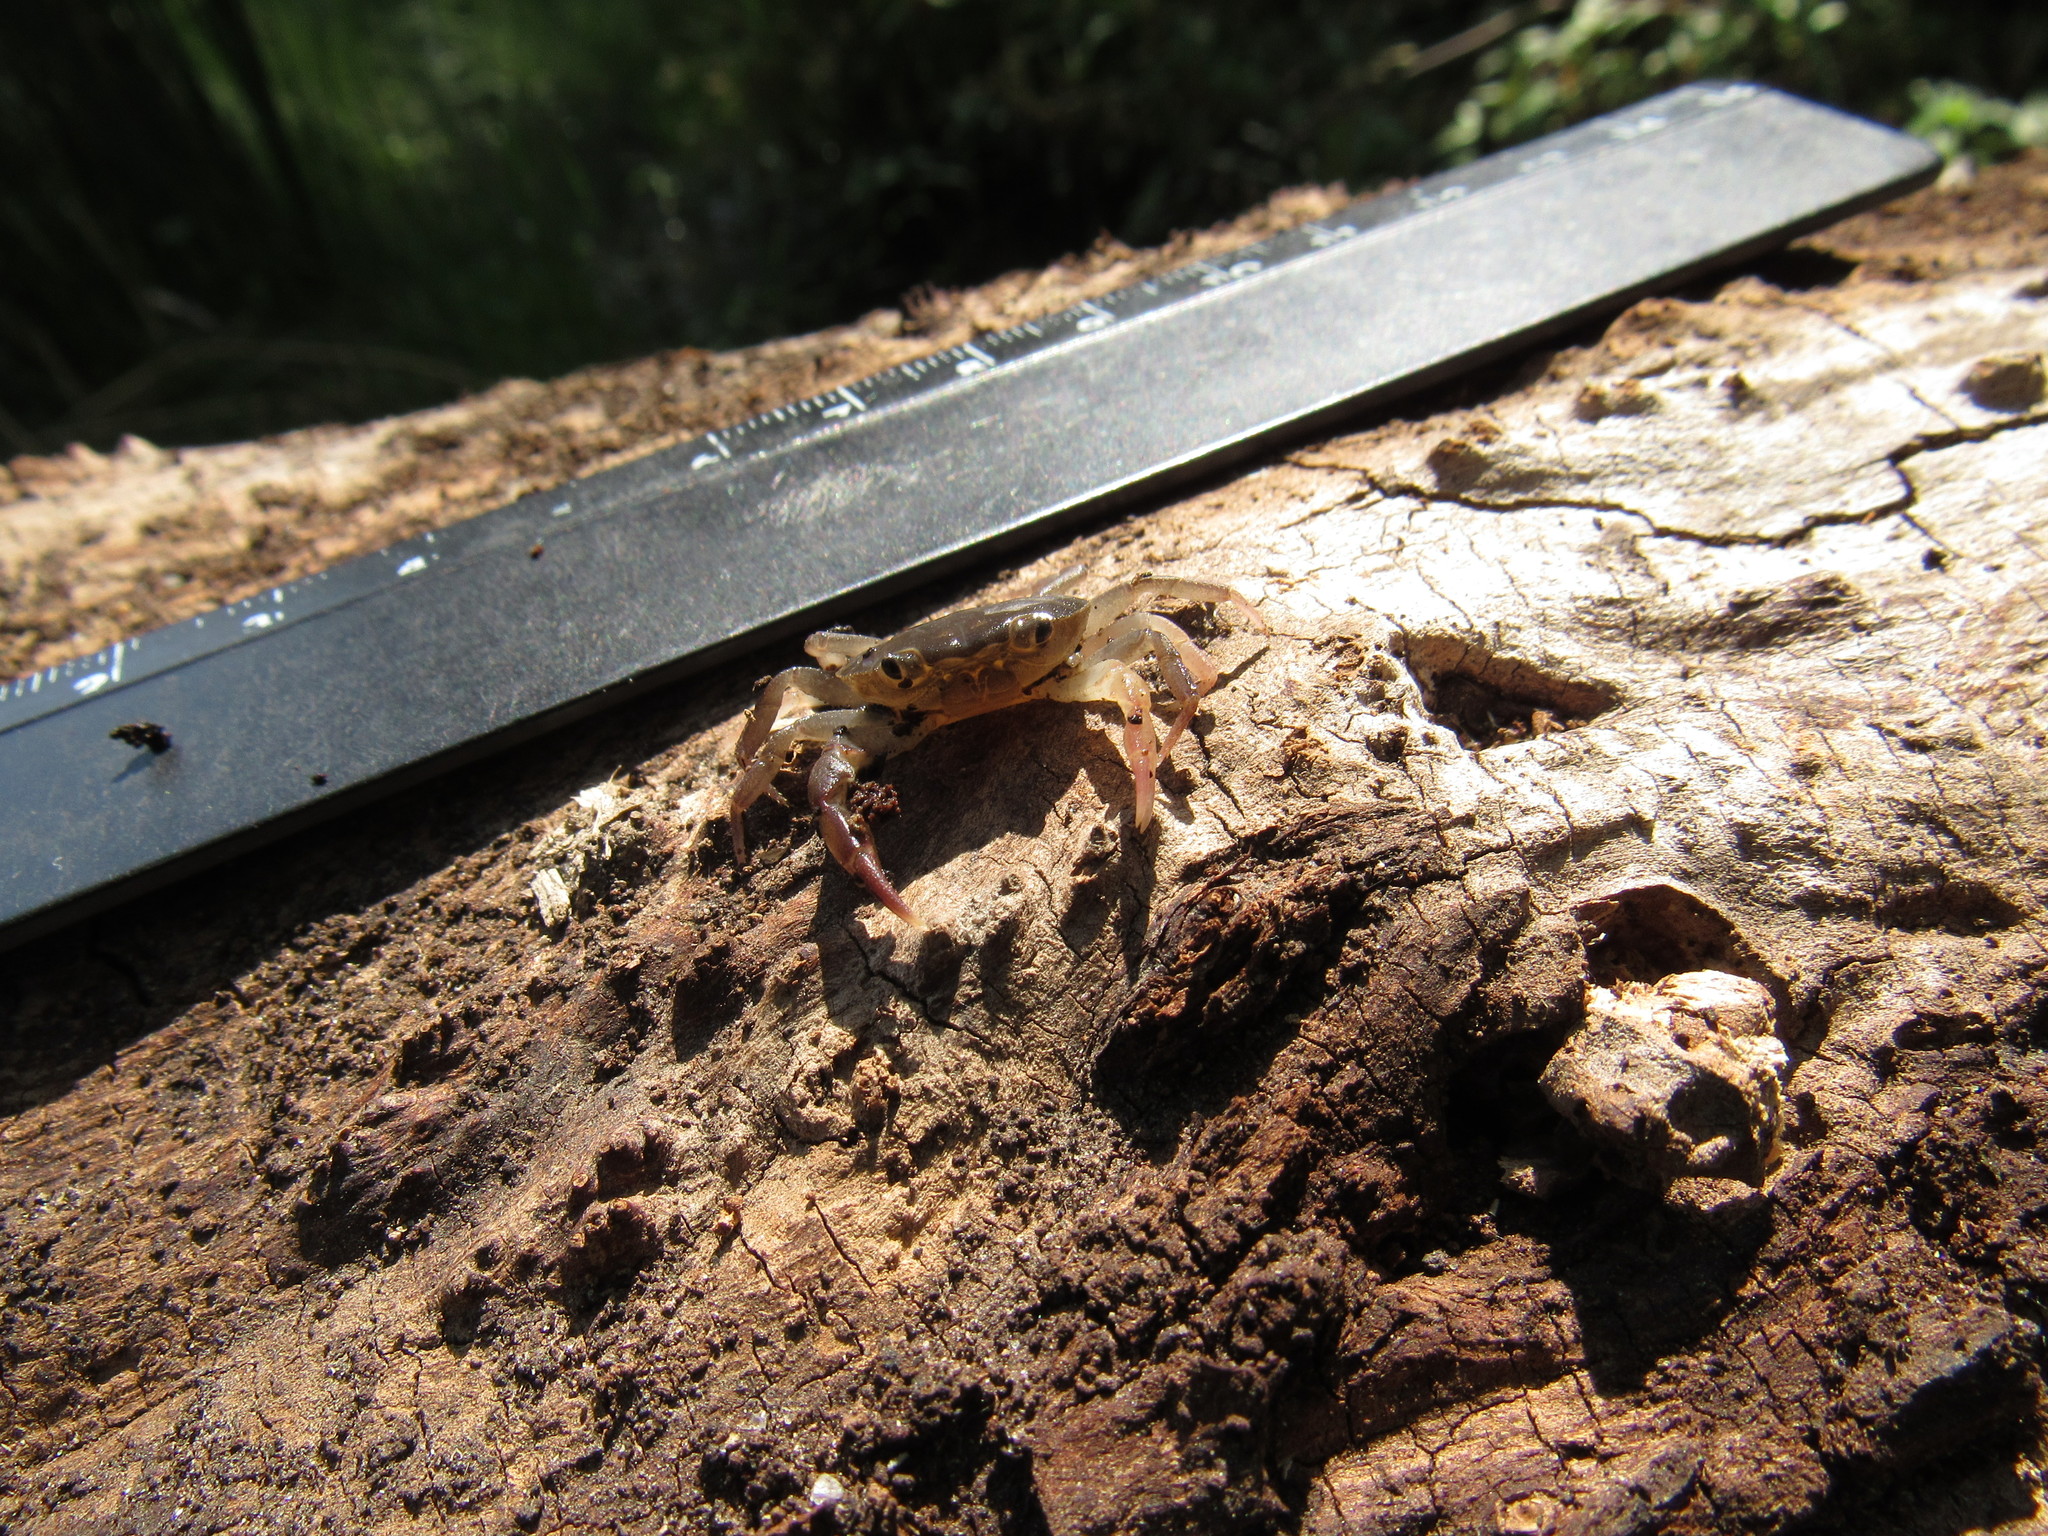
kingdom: Animalia
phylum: Arthropoda
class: Malacostraca
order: Decapoda
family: Pseudothelphusidae
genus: Pseudothelphusa
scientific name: Pseudothelphusa jouyi
